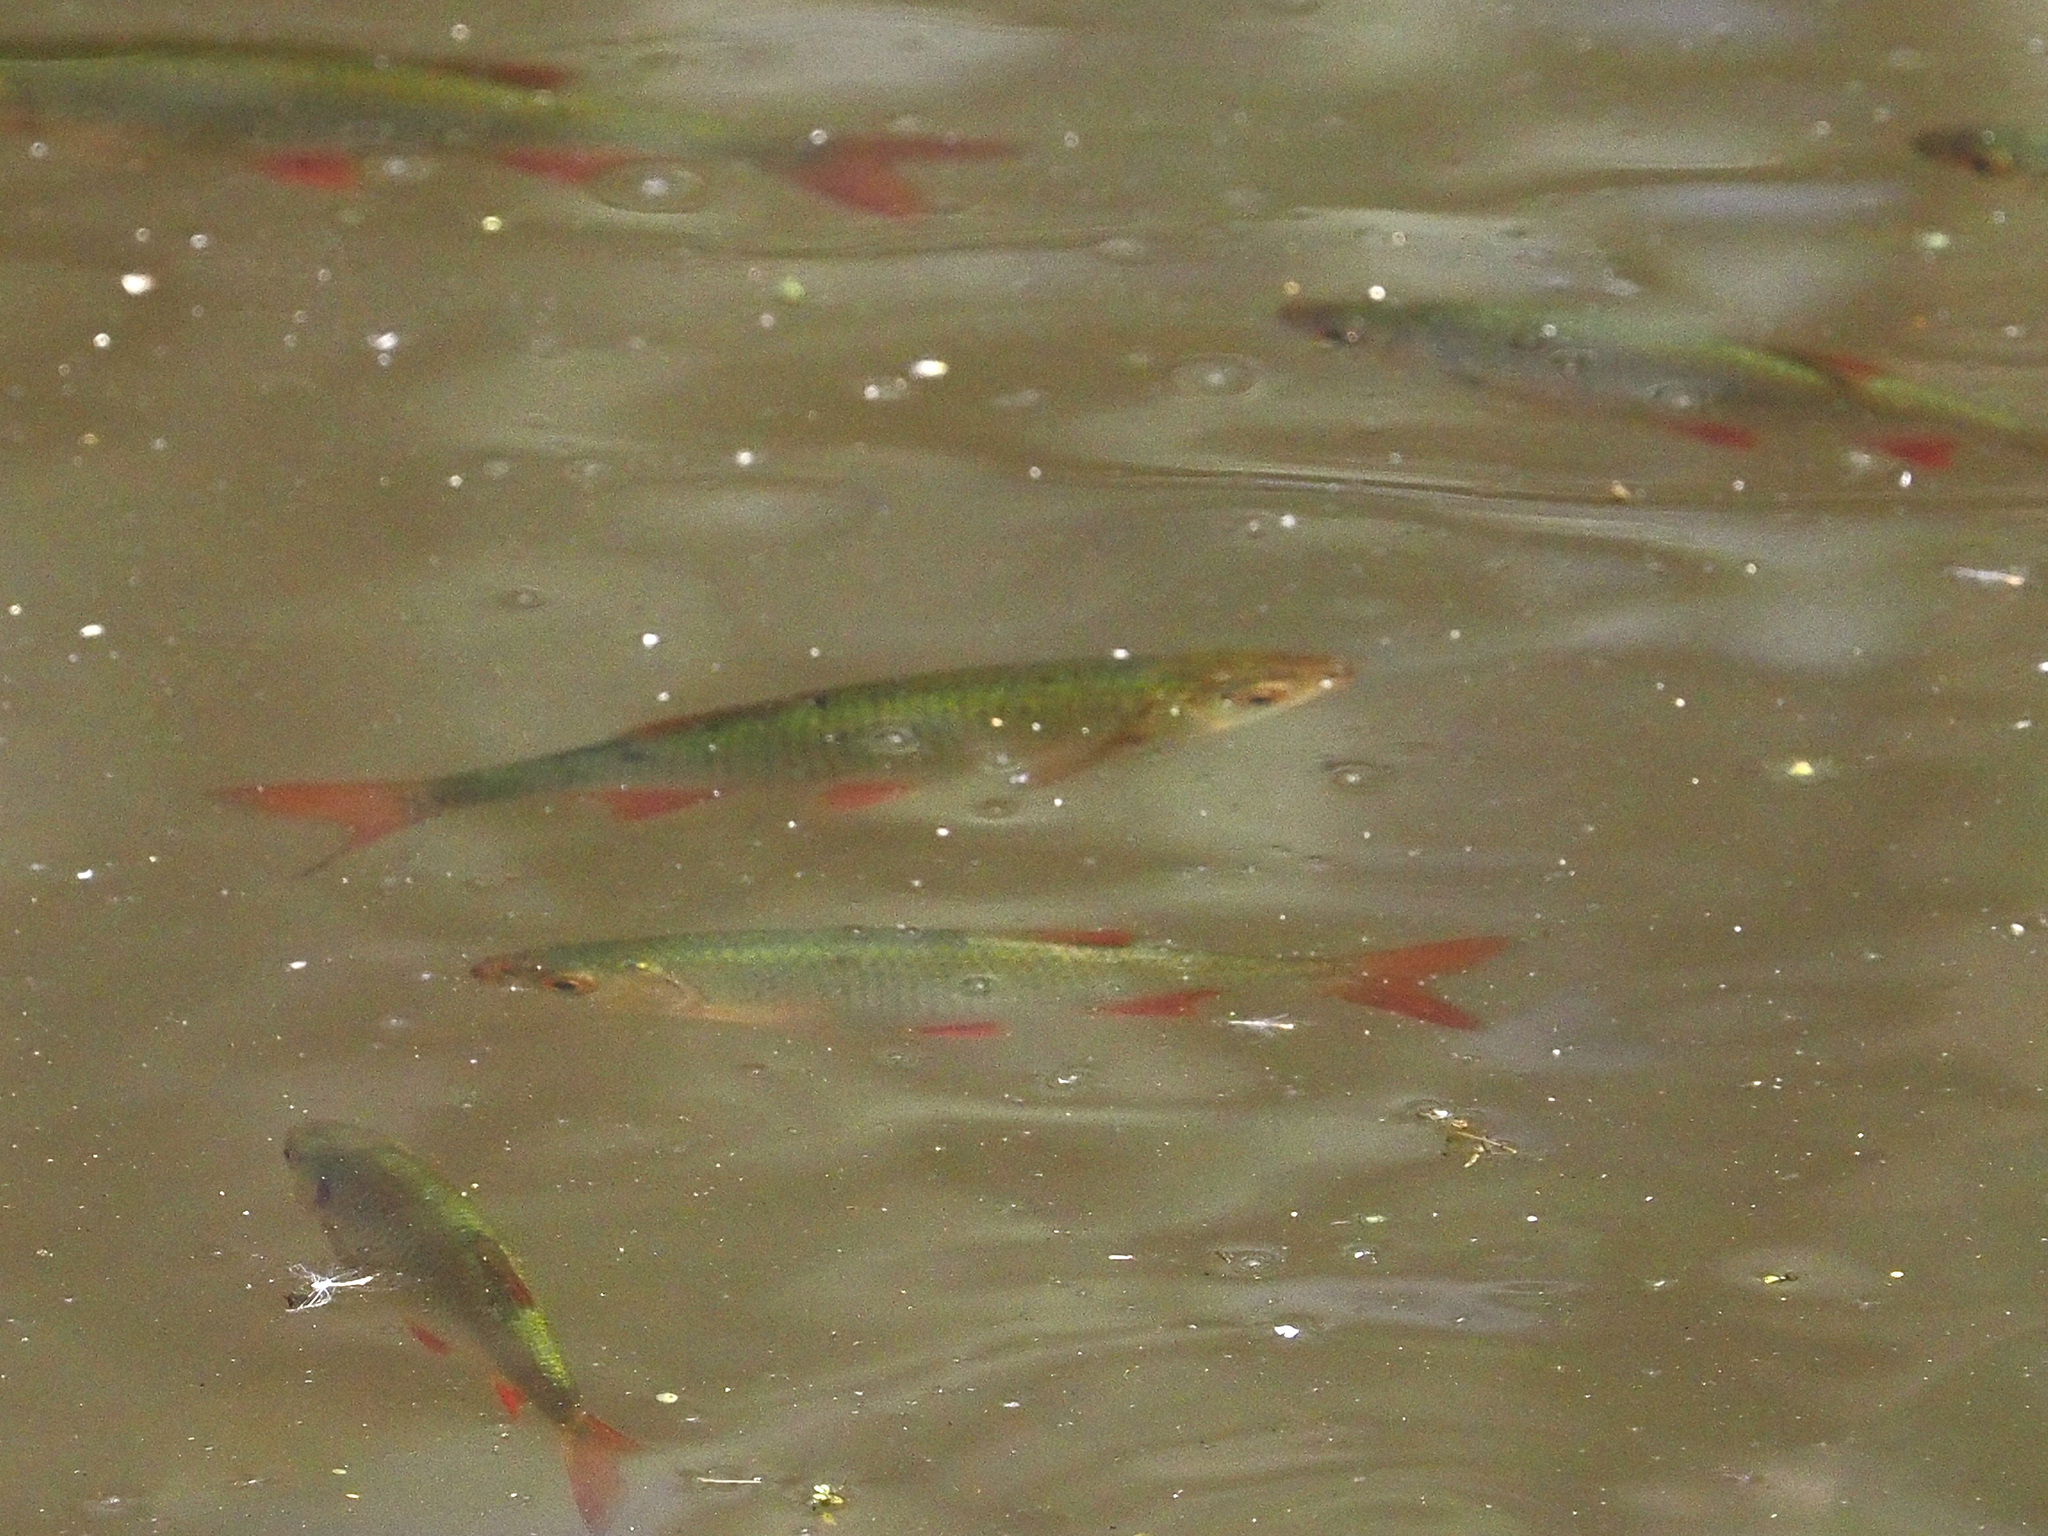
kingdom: Animalia
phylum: Chordata
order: Cypriniformes
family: Cyprinidae
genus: Scardinius
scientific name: Scardinius erythrophthalmus
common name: Rudd
